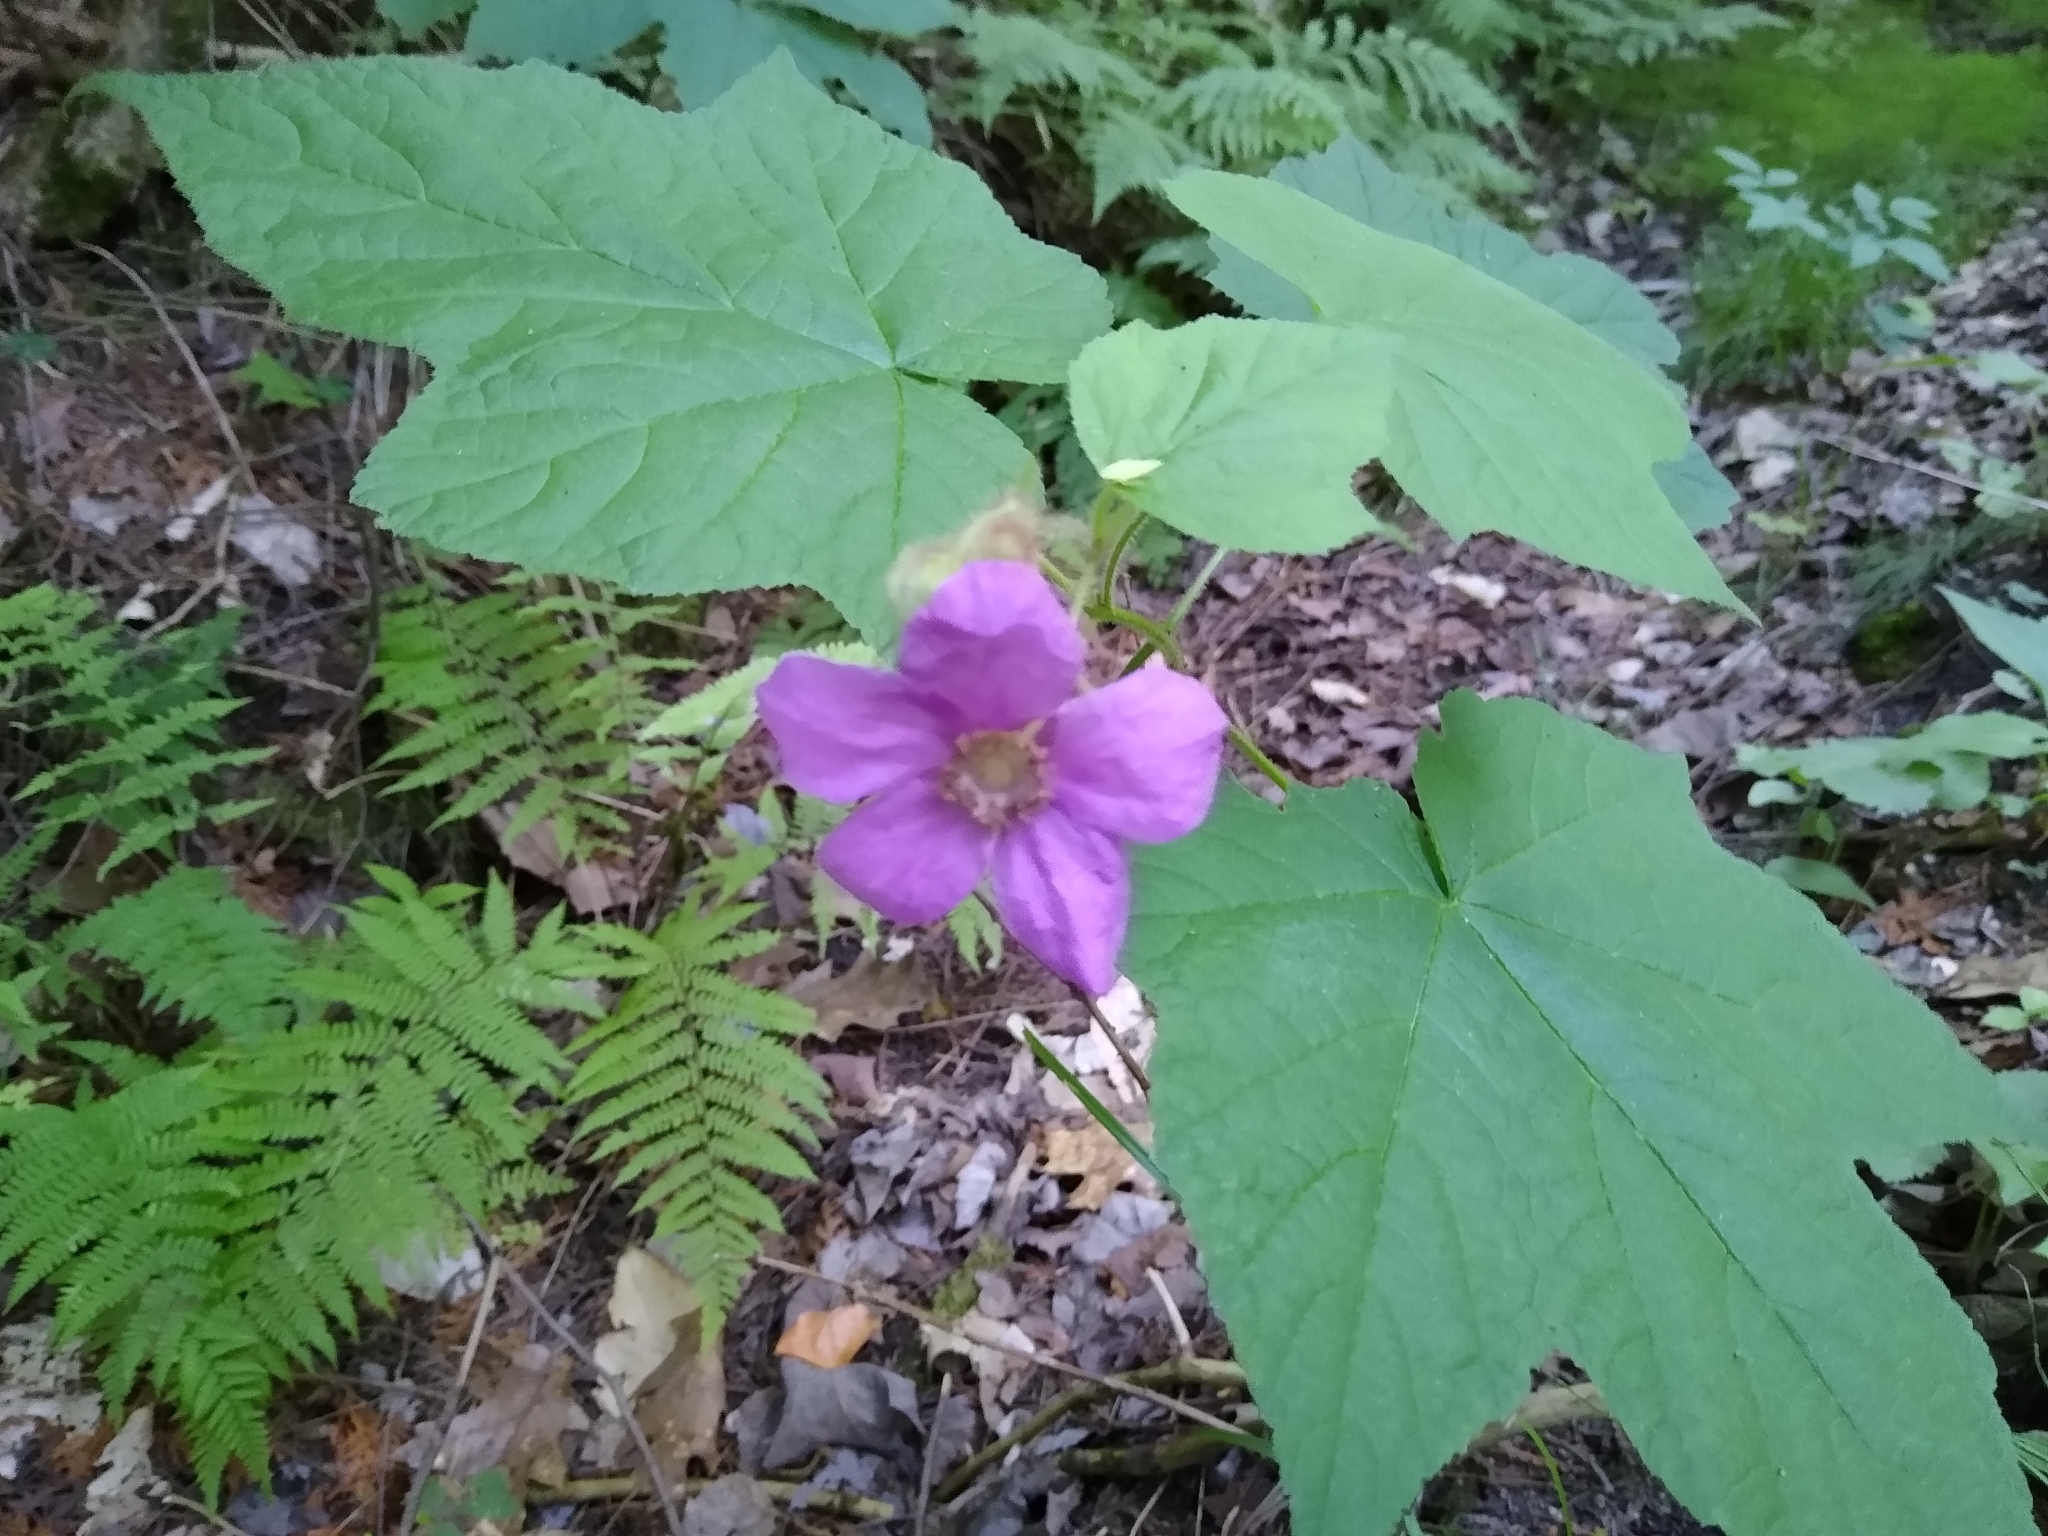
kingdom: Plantae
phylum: Tracheophyta
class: Magnoliopsida
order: Rosales
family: Rosaceae
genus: Rubus
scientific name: Rubus odoratus
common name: Purple-flowered raspberry
